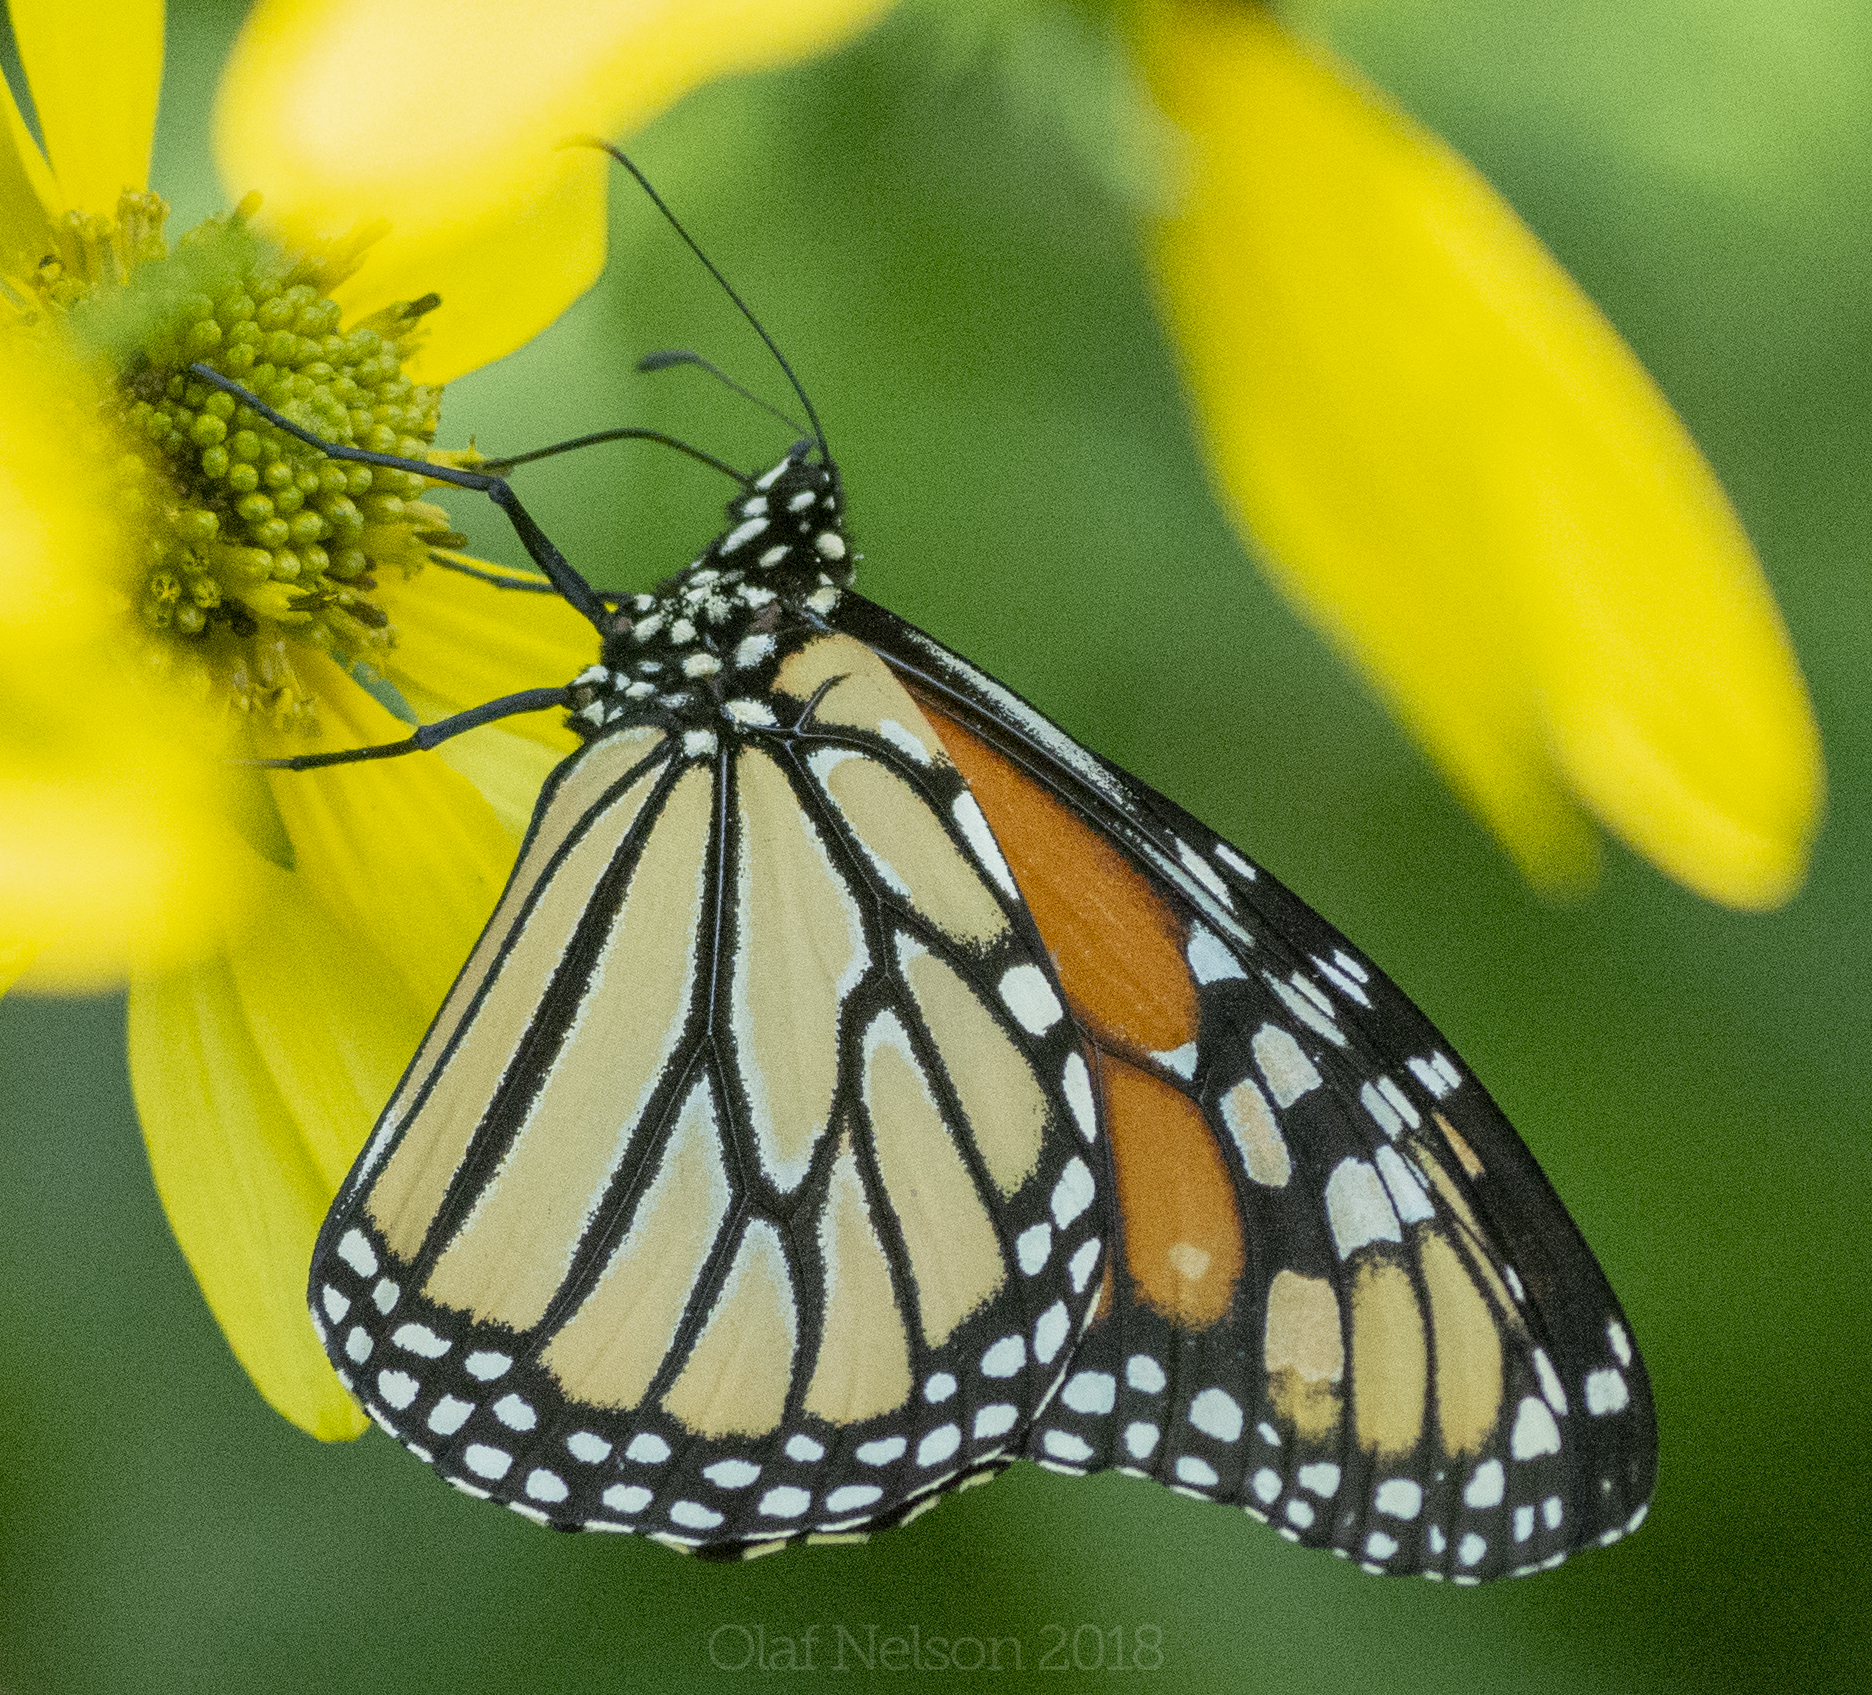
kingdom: Animalia
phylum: Arthropoda
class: Insecta
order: Lepidoptera
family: Nymphalidae
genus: Danaus
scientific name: Danaus plexippus
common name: Monarch
